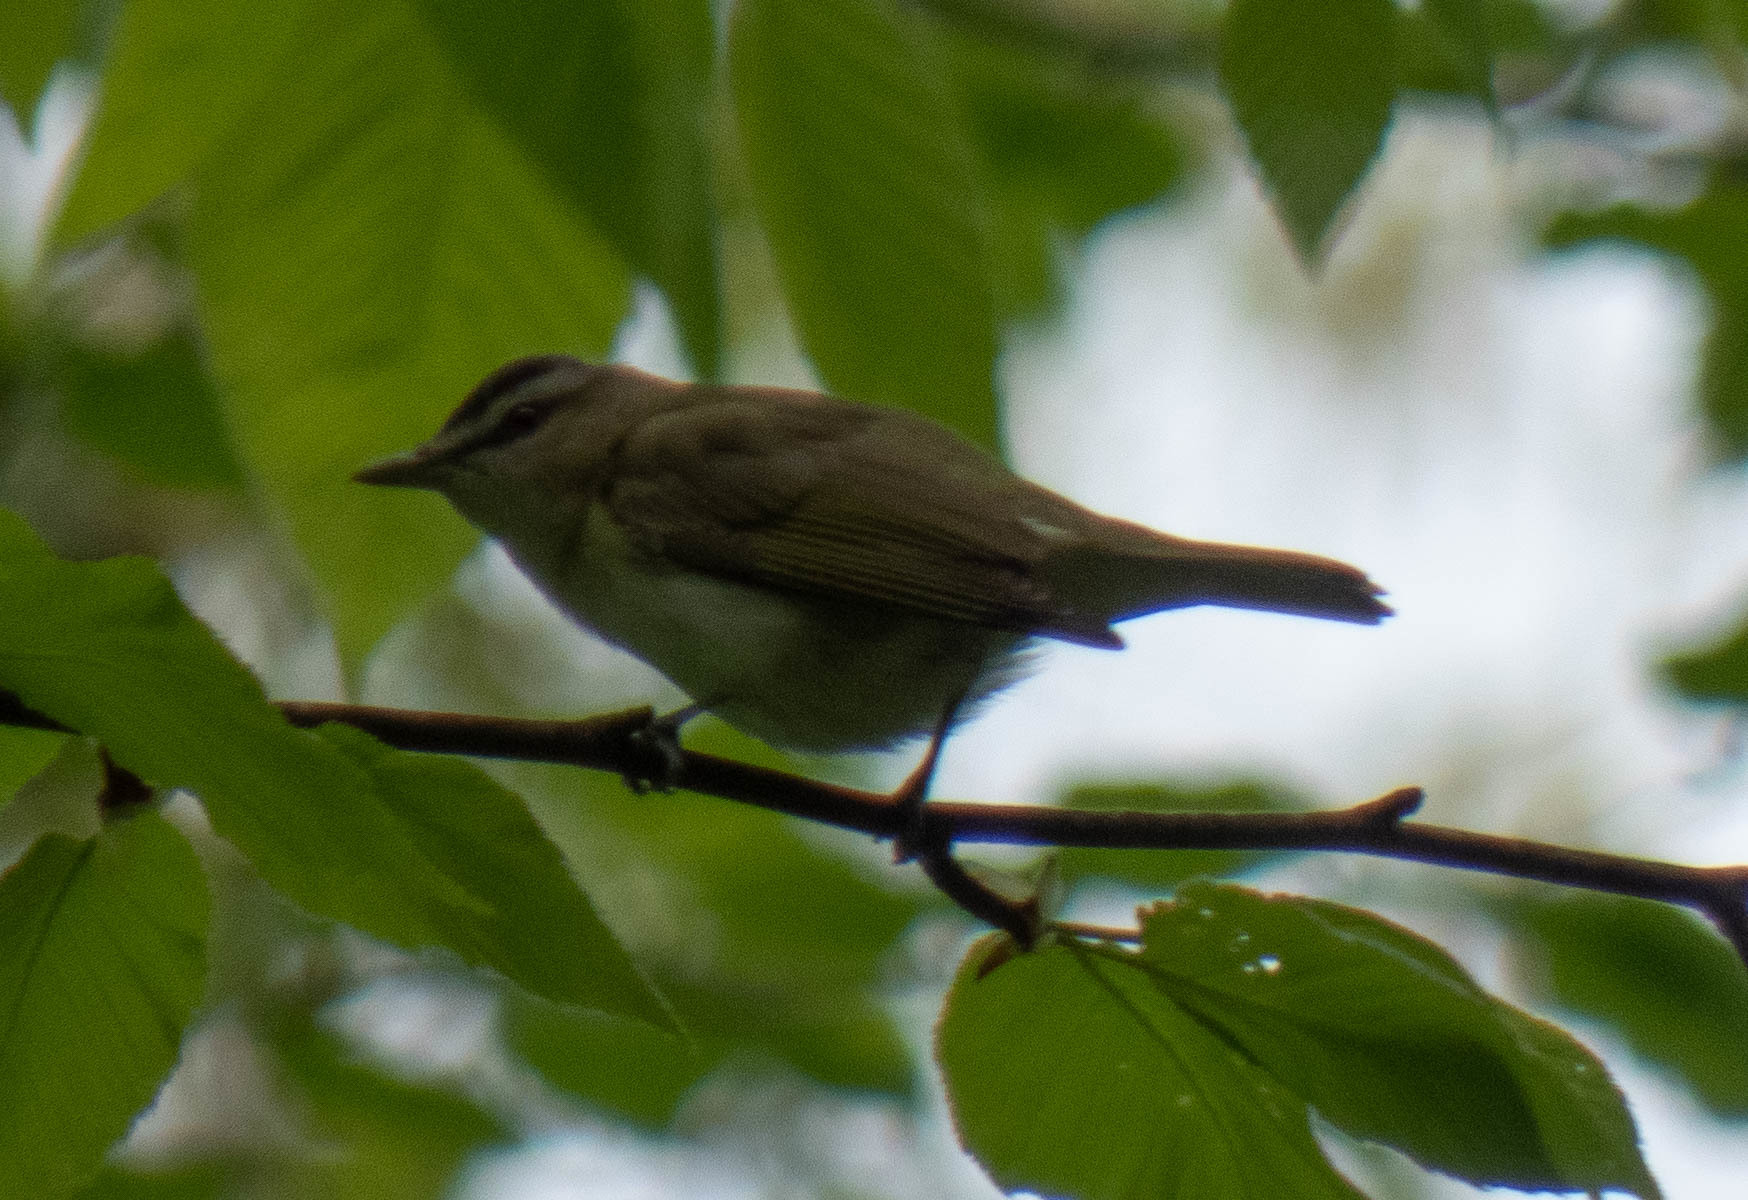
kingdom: Animalia
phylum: Chordata
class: Aves
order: Passeriformes
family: Vireonidae
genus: Vireo
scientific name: Vireo olivaceus
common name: Red-eyed vireo
